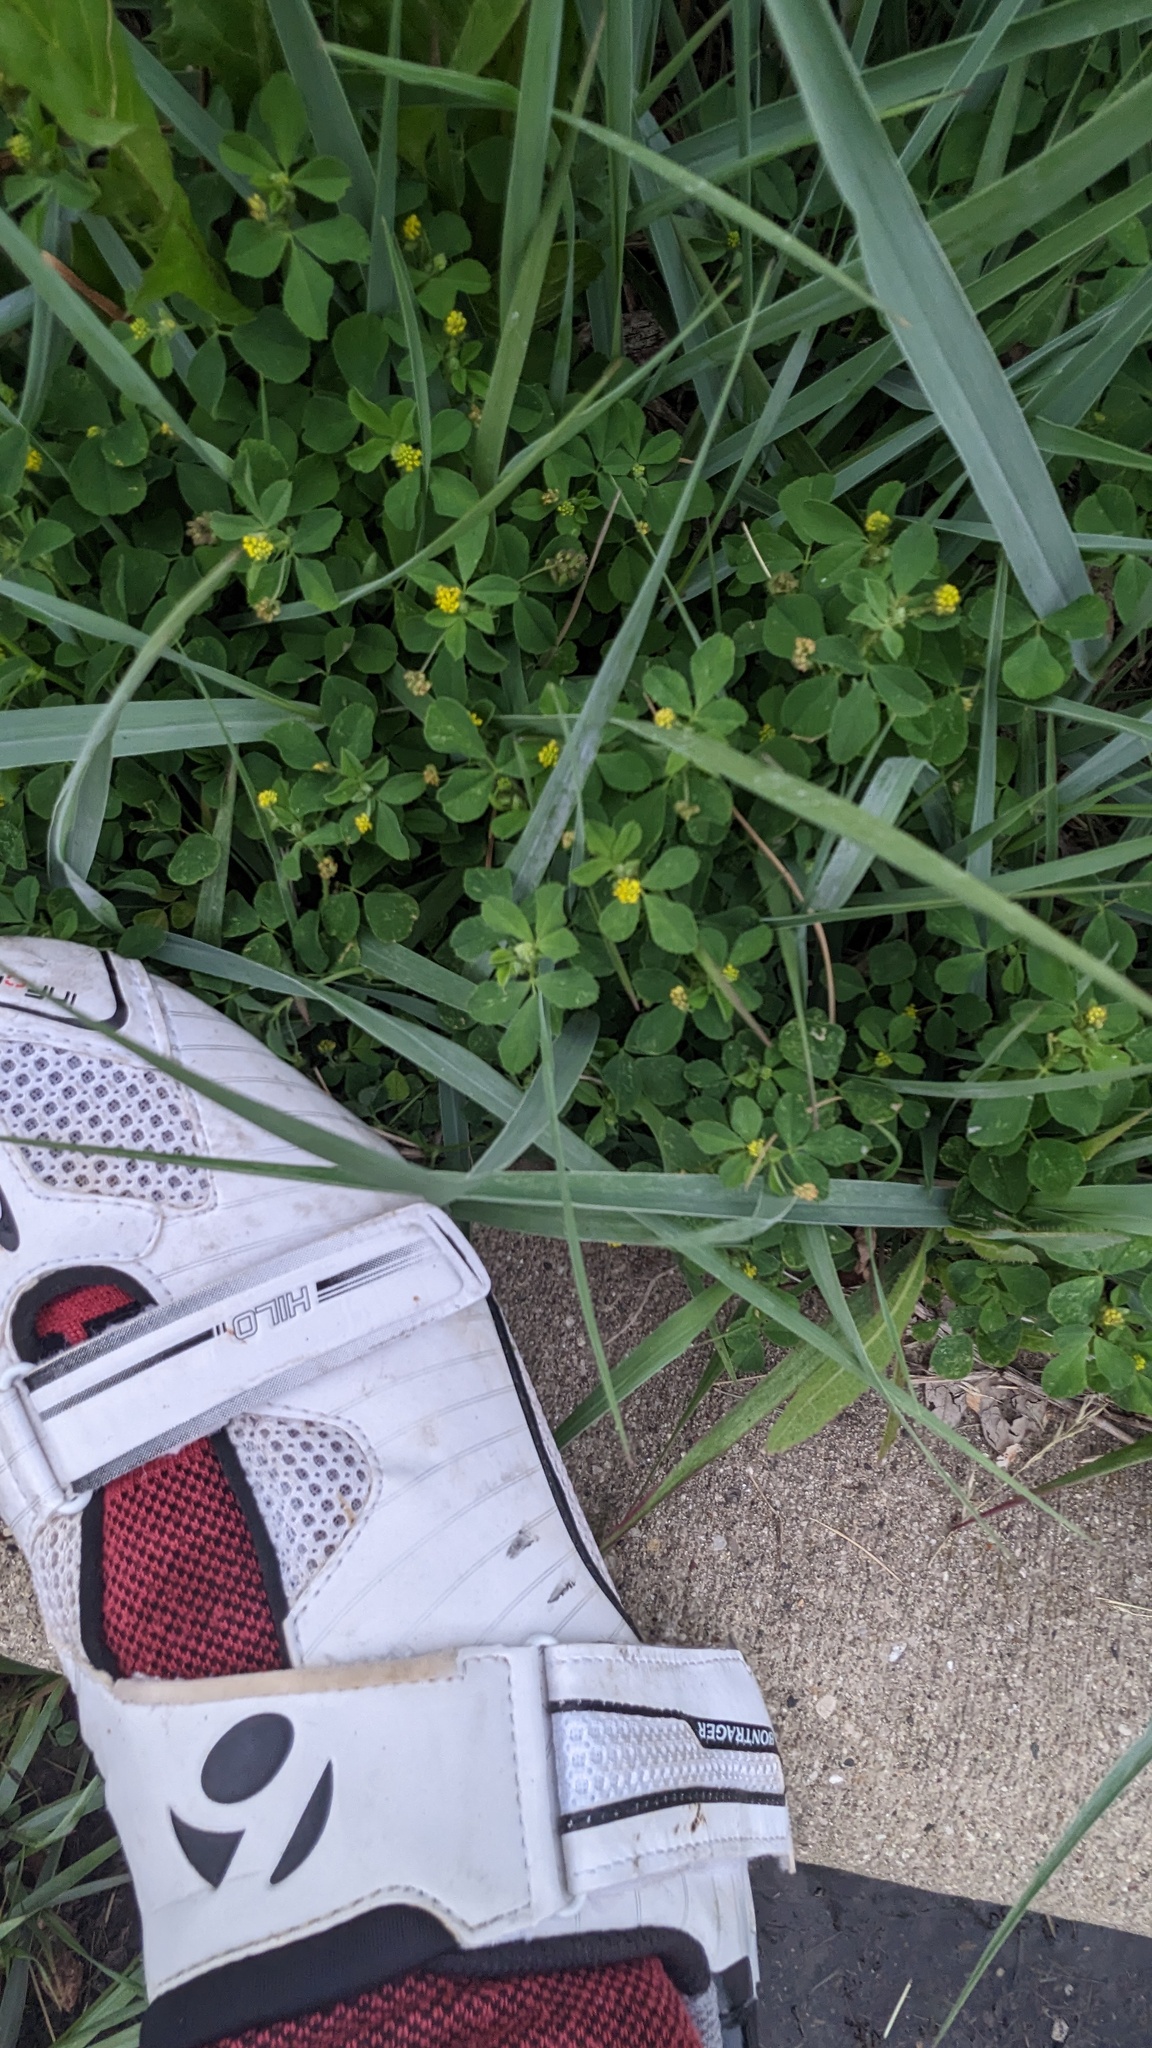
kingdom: Plantae
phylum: Tracheophyta
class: Magnoliopsida
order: Fabales
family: Fabaceae
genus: Medicago
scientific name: Medicago lupulina
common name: Black medick
